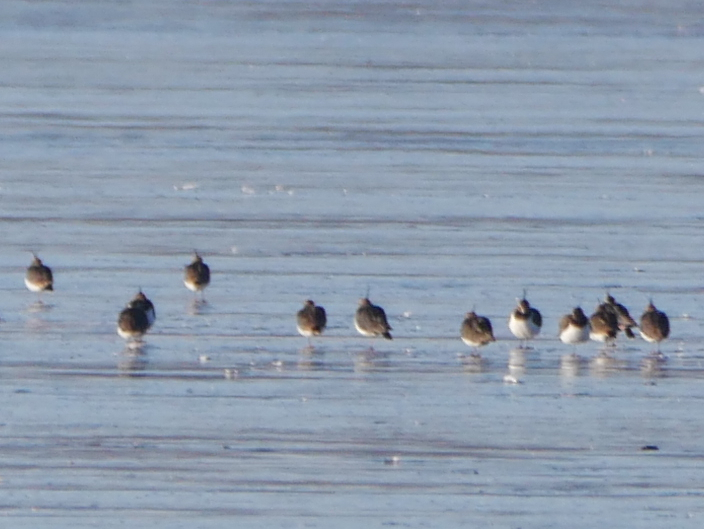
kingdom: Animalia
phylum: Chordata
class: Aves
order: Charadriiformes
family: Charadriidae
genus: Vanellus
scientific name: Vanellus vanellus
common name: Northern lapwing
